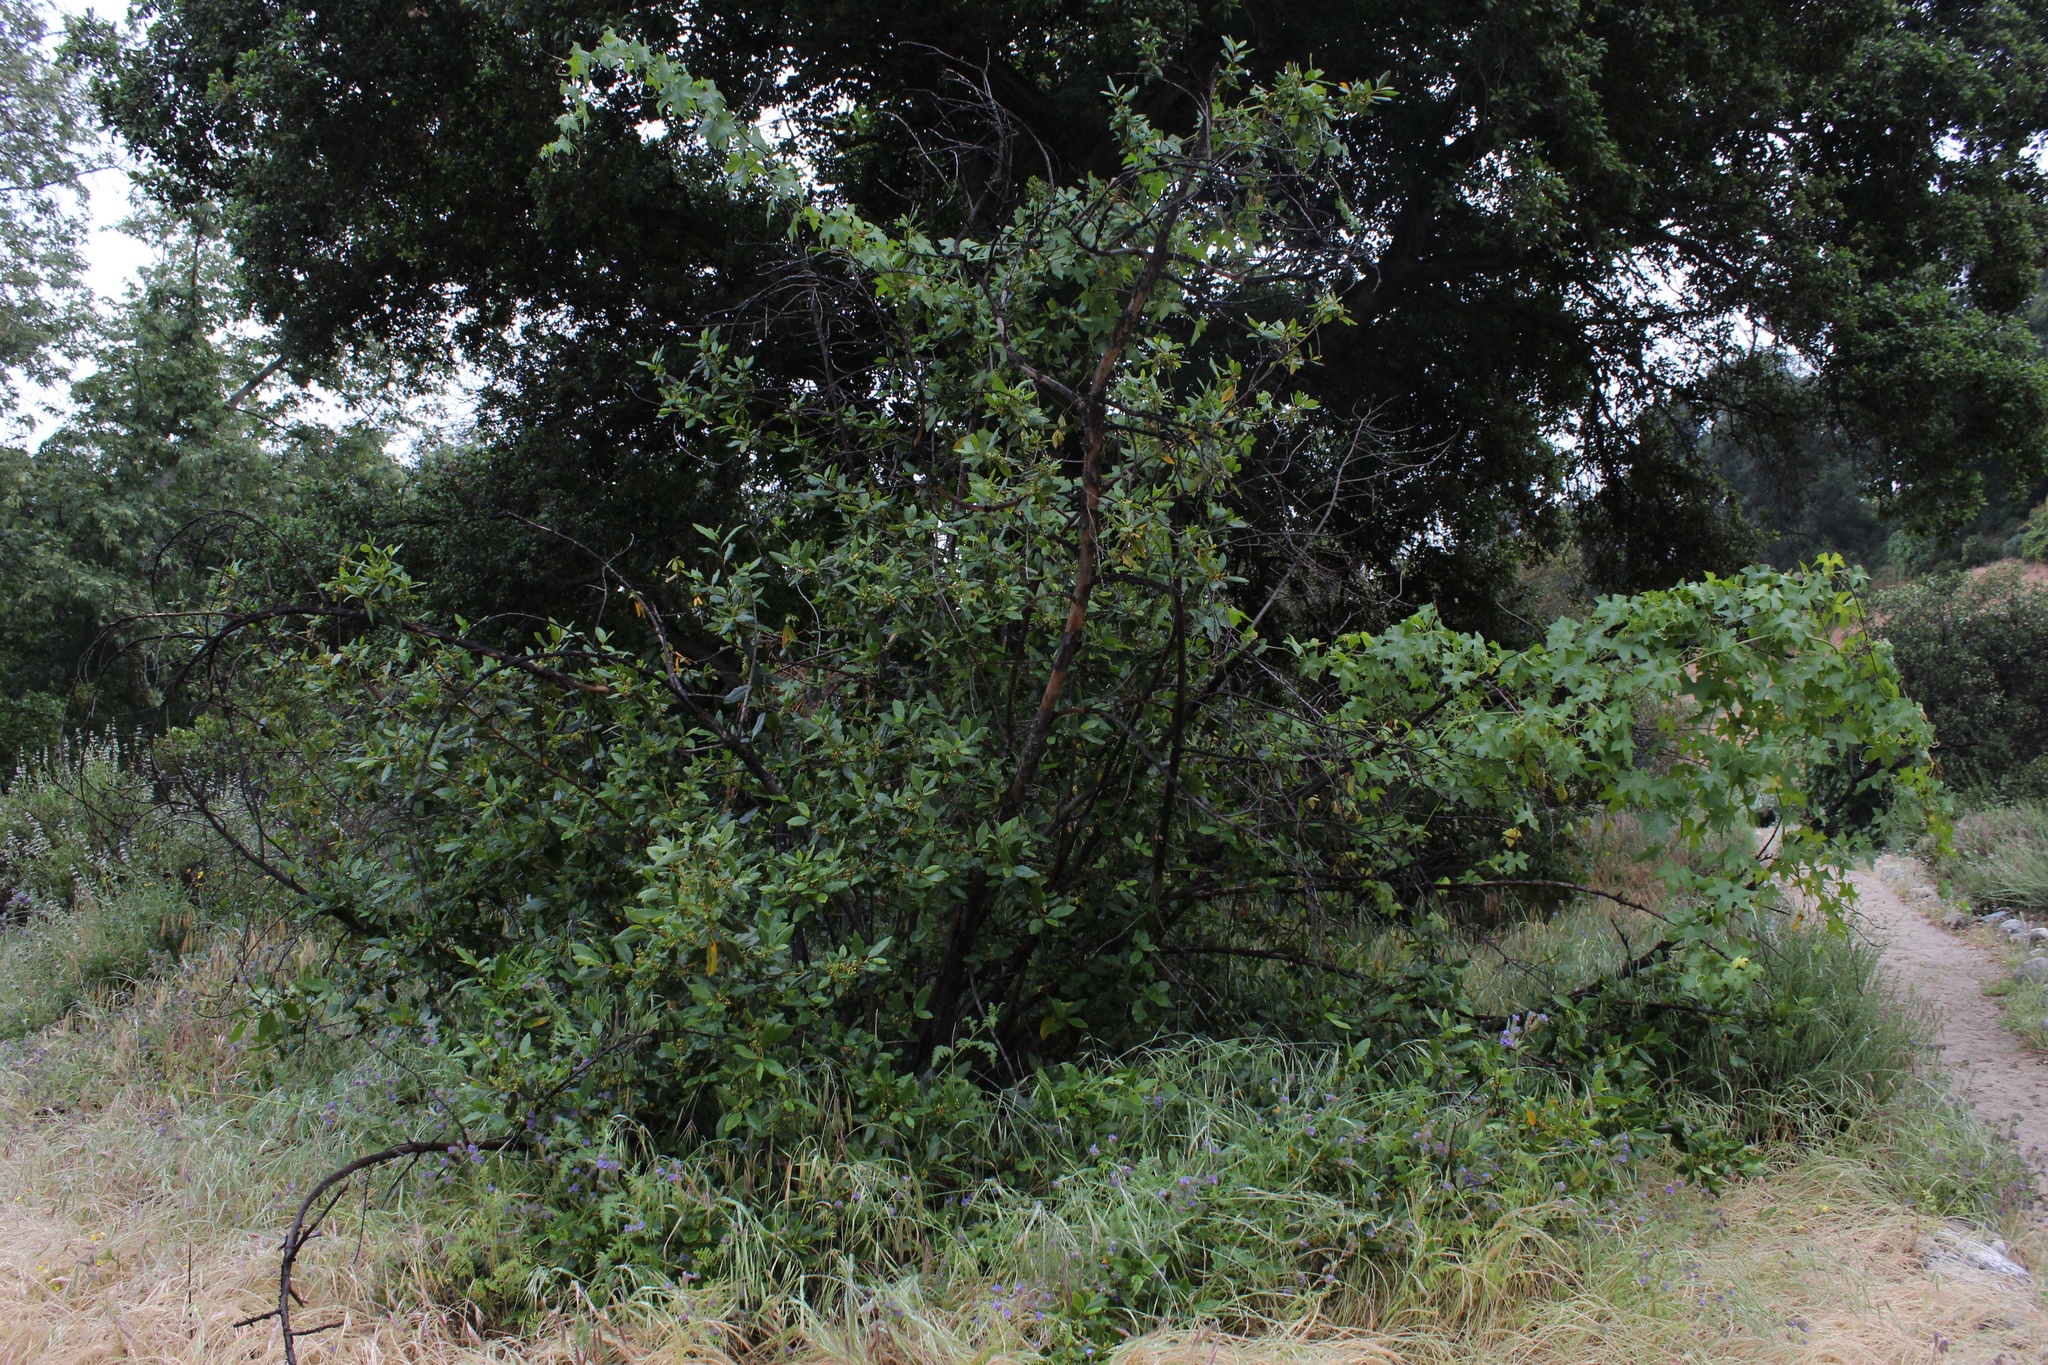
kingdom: Plantae
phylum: Tracheophyta
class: Magnoliopsida
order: Fagales
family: Fagaceae
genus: Quercus
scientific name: Quercus agrifolia
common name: California live oak
